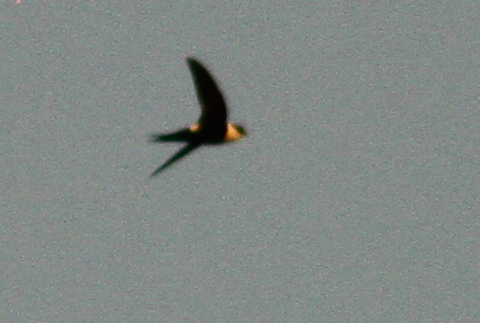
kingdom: Animalia
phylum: Chordata
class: Aves
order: Apodiformes
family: Apodidae
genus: Panyptila
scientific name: Panyptila cayennensis
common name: Lesser swallow-tailed swift
